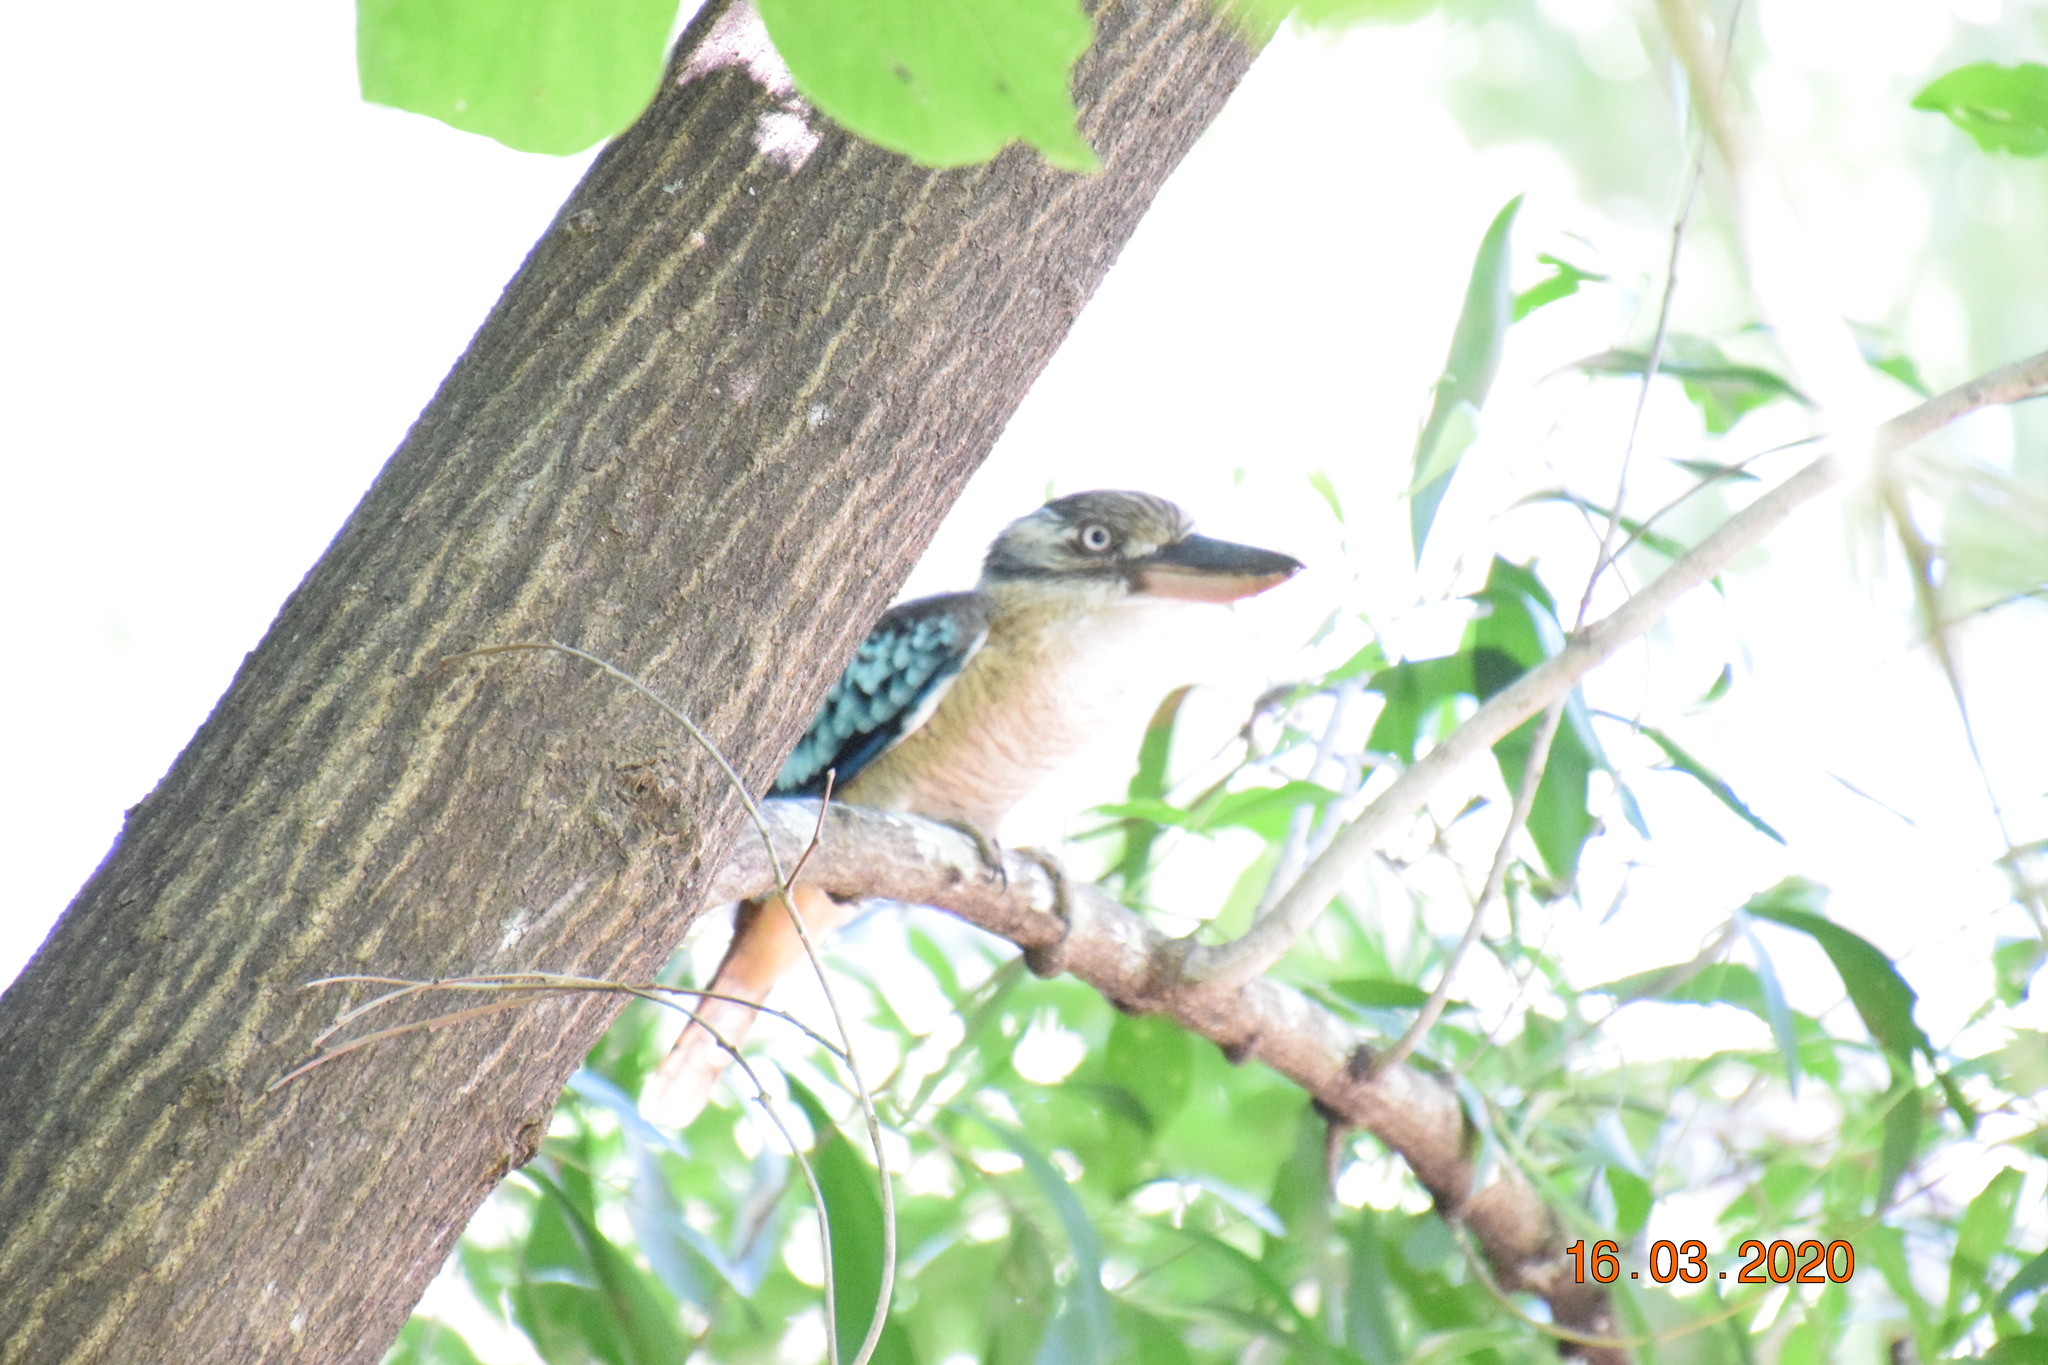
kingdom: Animalia
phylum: Chordata
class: Aves
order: Coraciiformes
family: Alcedinidae
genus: Dacelo
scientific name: Dacelo leachii
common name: Blue-winged kookaburra
